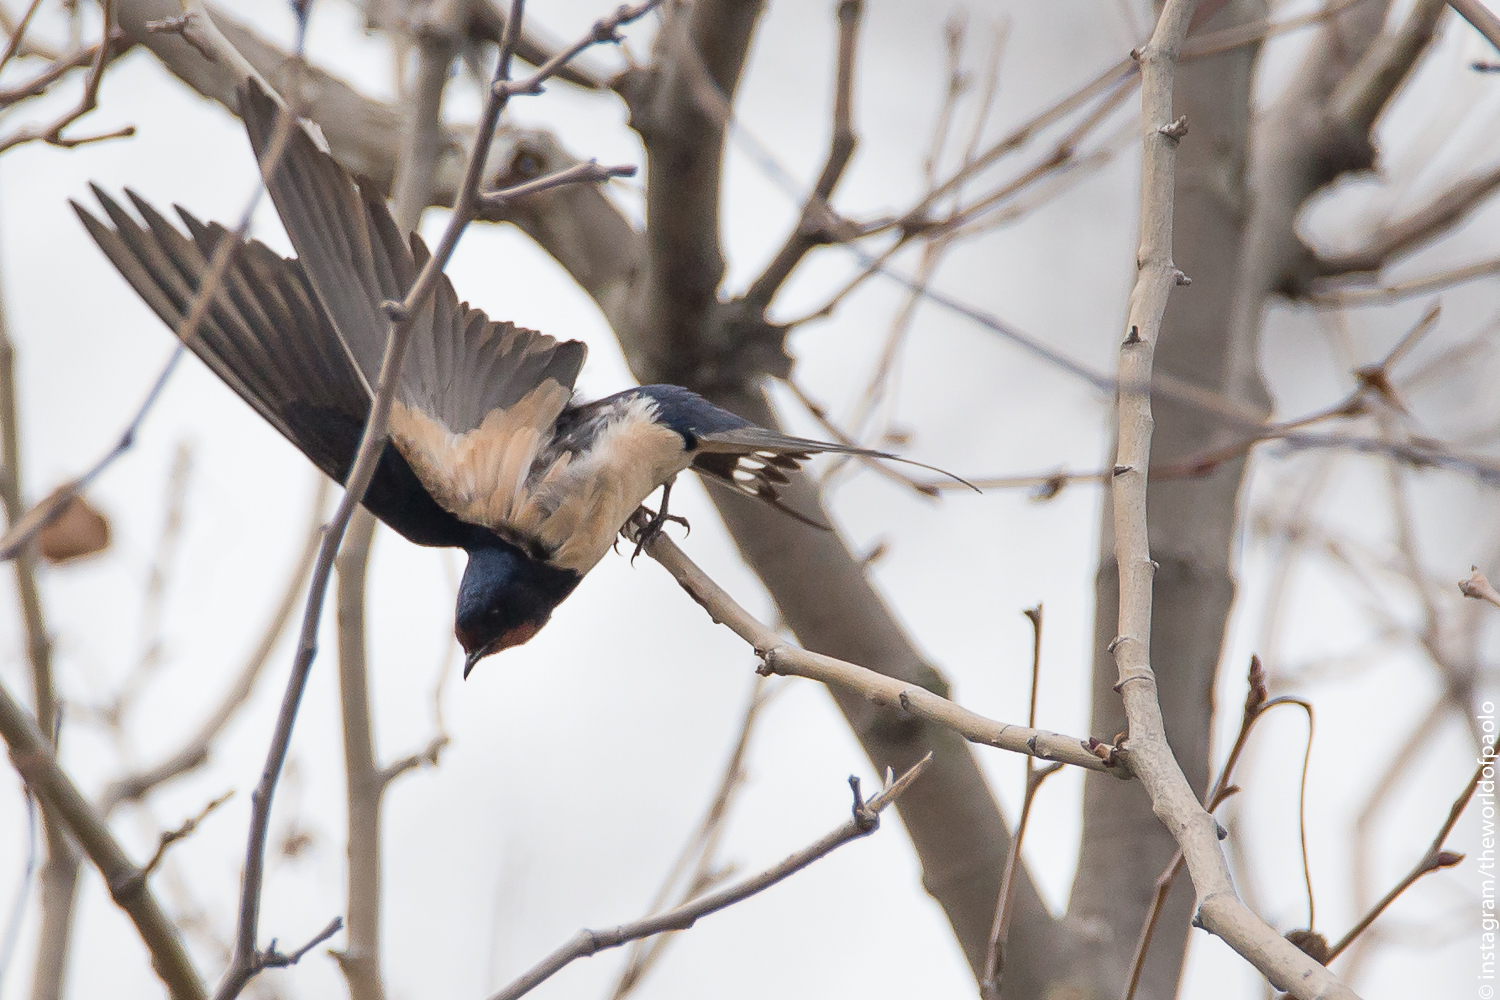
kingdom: Animalia
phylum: Chordata
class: Aves
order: Passeriformes
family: Hirundinidae
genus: Hirundo
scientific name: Hirundo rustica
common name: Barn swallow
